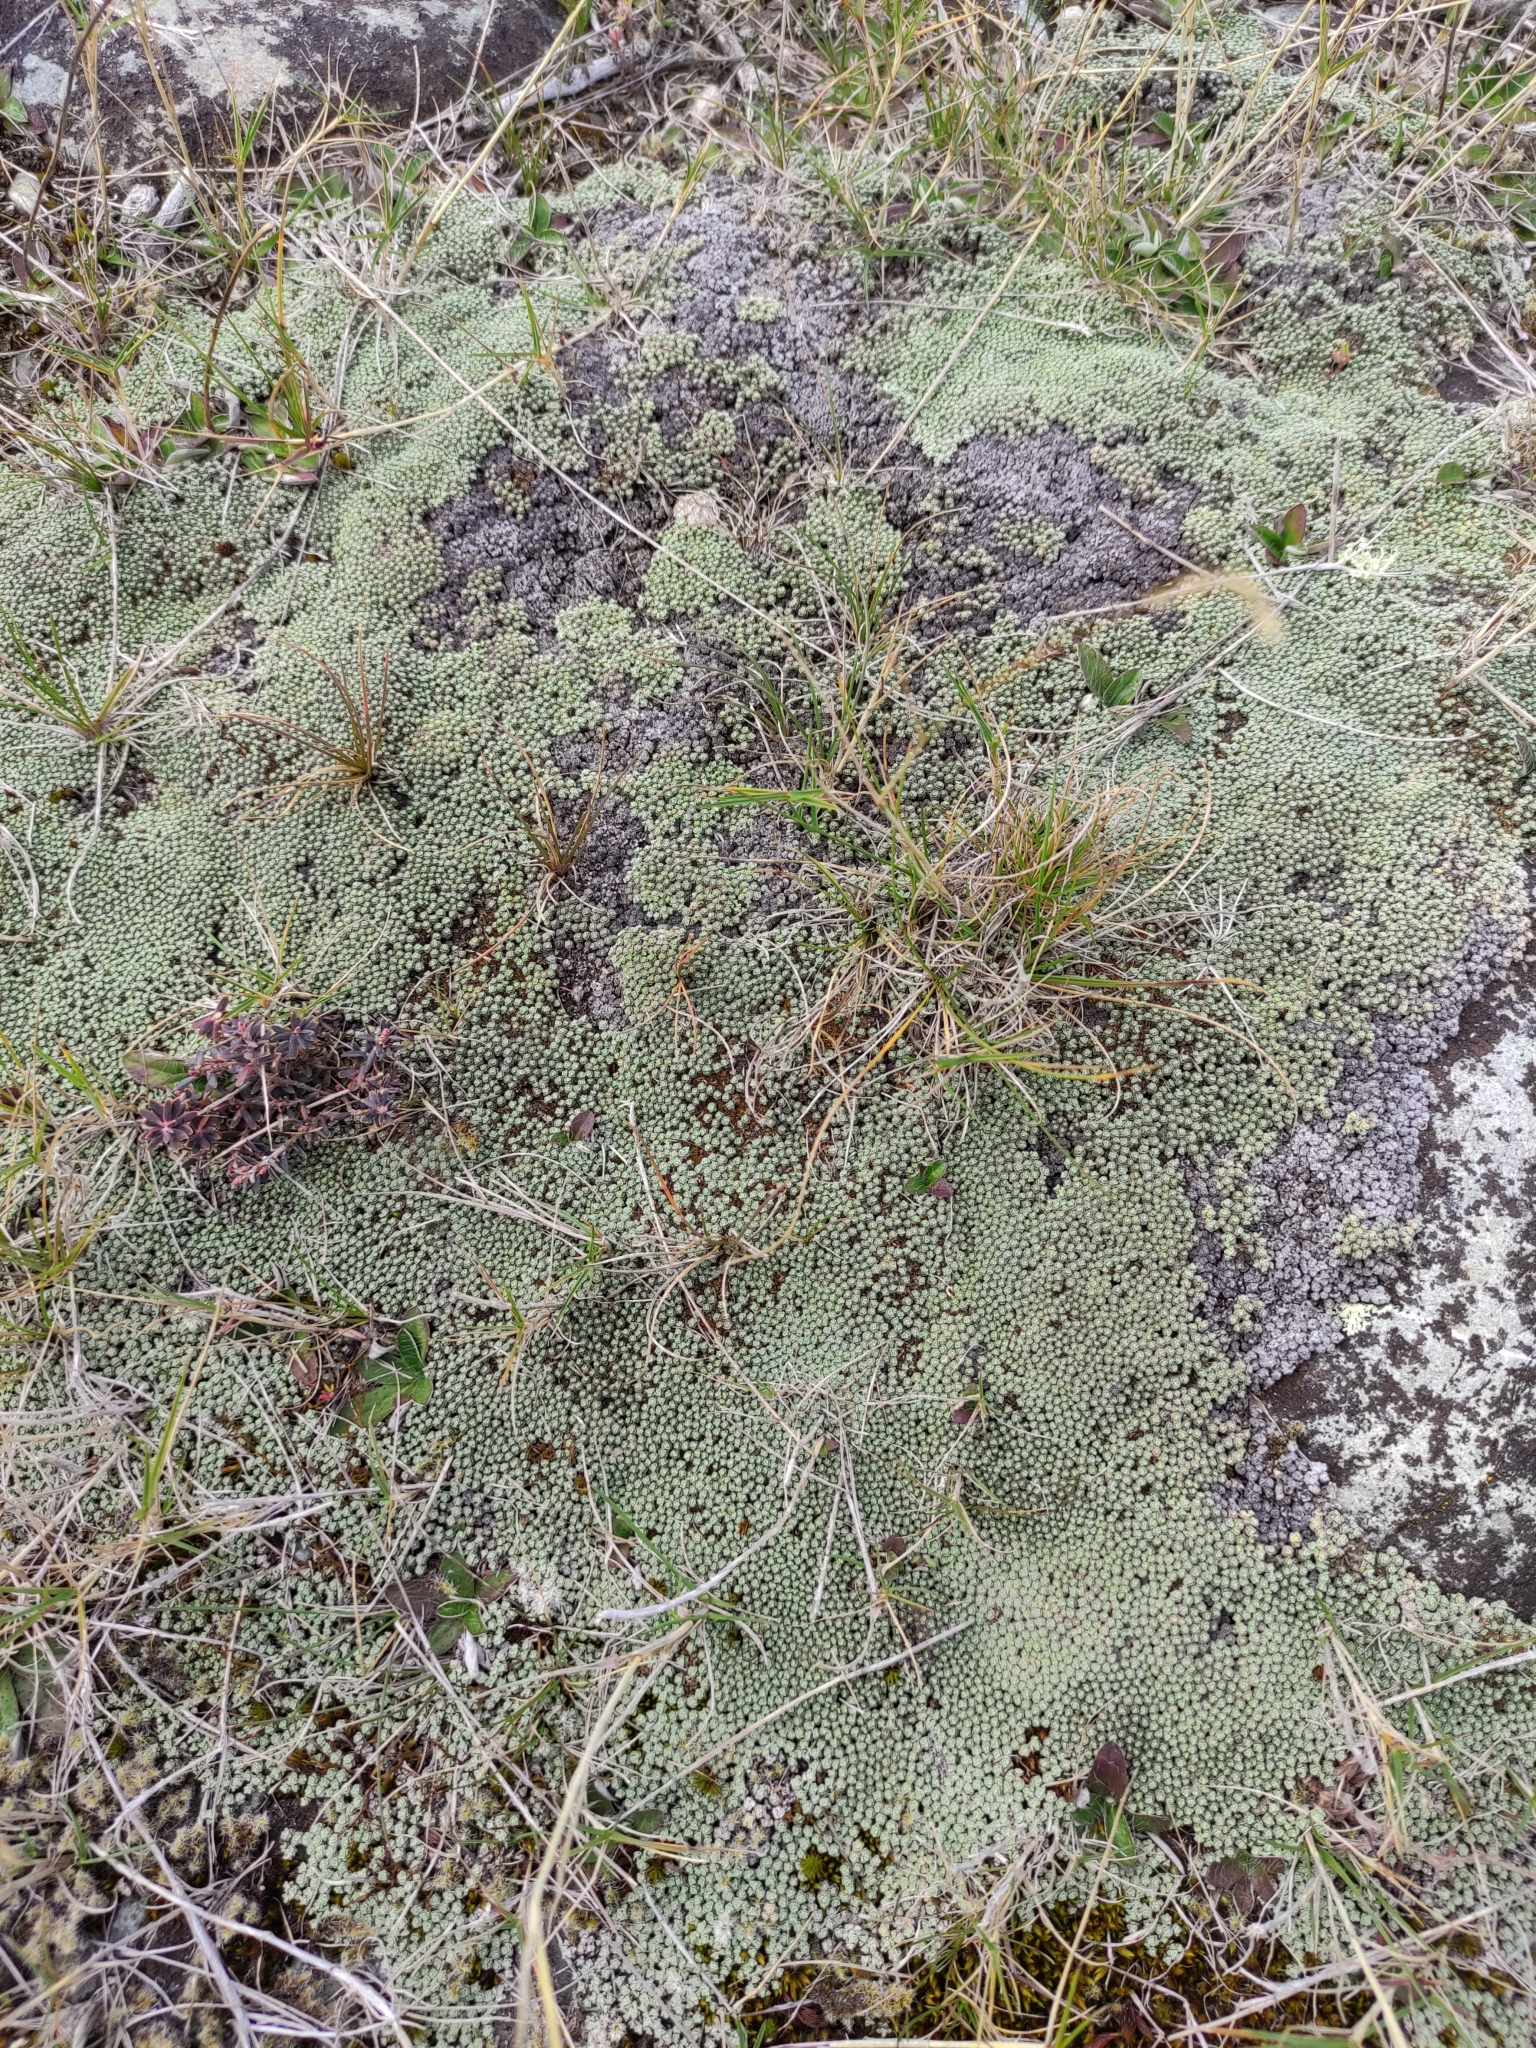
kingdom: Plantae
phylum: Tracheophyta
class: Magnoliopsida
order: Asterales
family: Asteraceae
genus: Raoulia
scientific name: Raoulia hookeri
